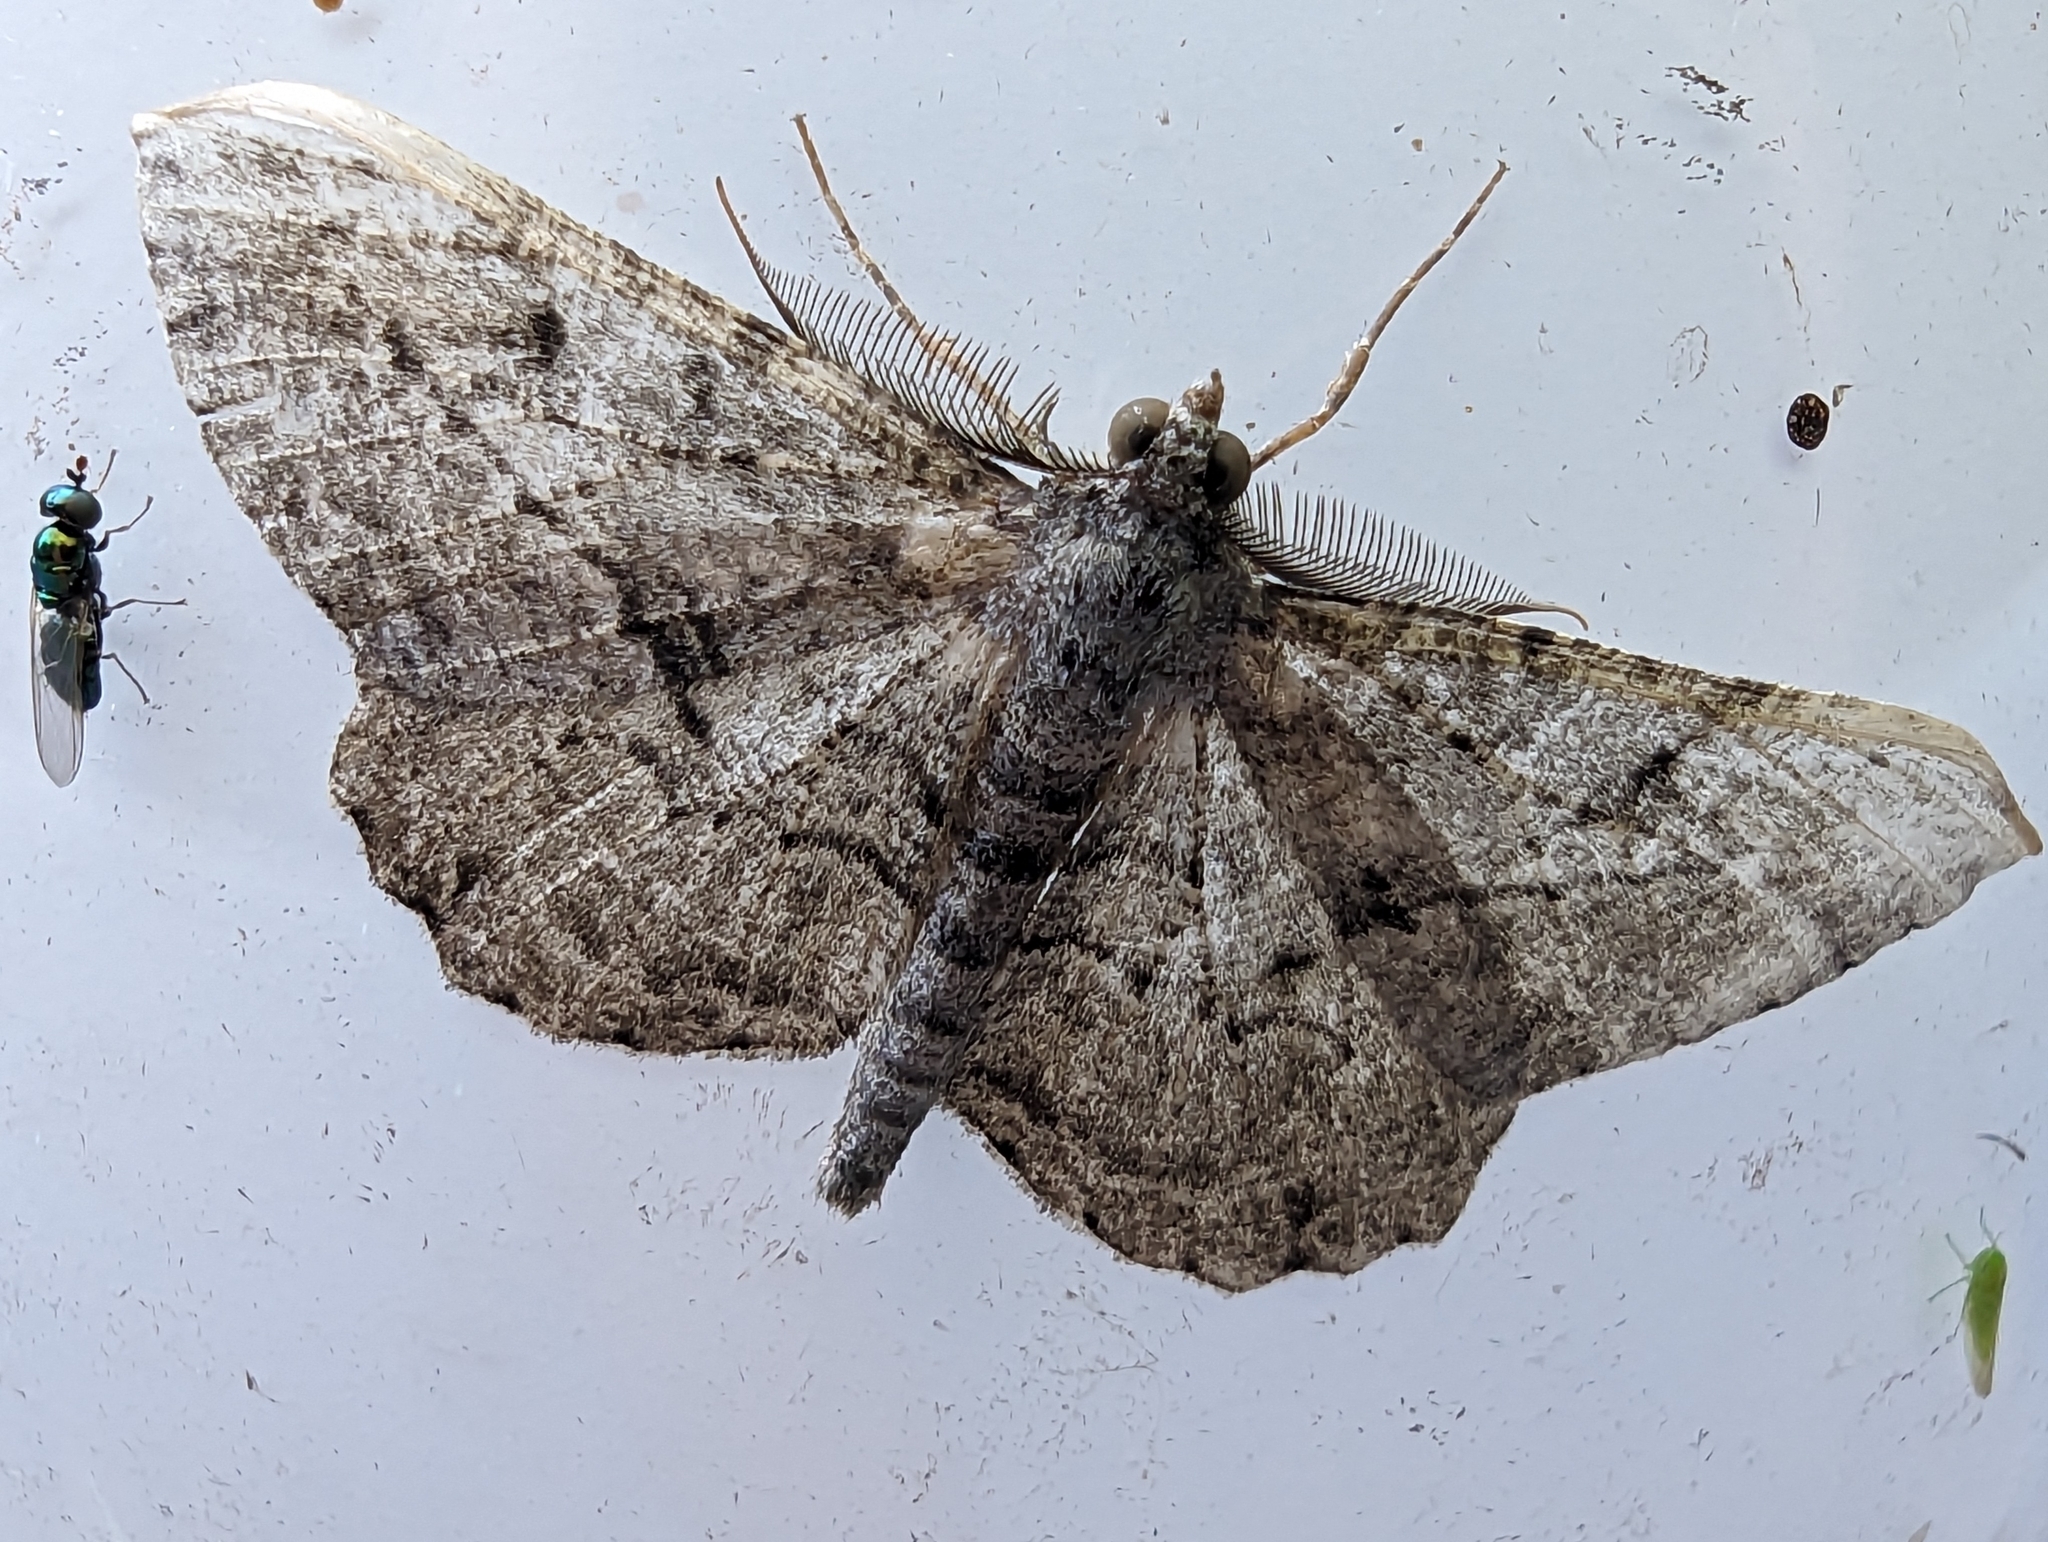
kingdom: Animalia
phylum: Arthropoda
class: Insecta
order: Lepidoptera
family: Geometridae
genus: Peribatodes
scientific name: Peribatodes rhomboidaria
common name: Willow beauty
